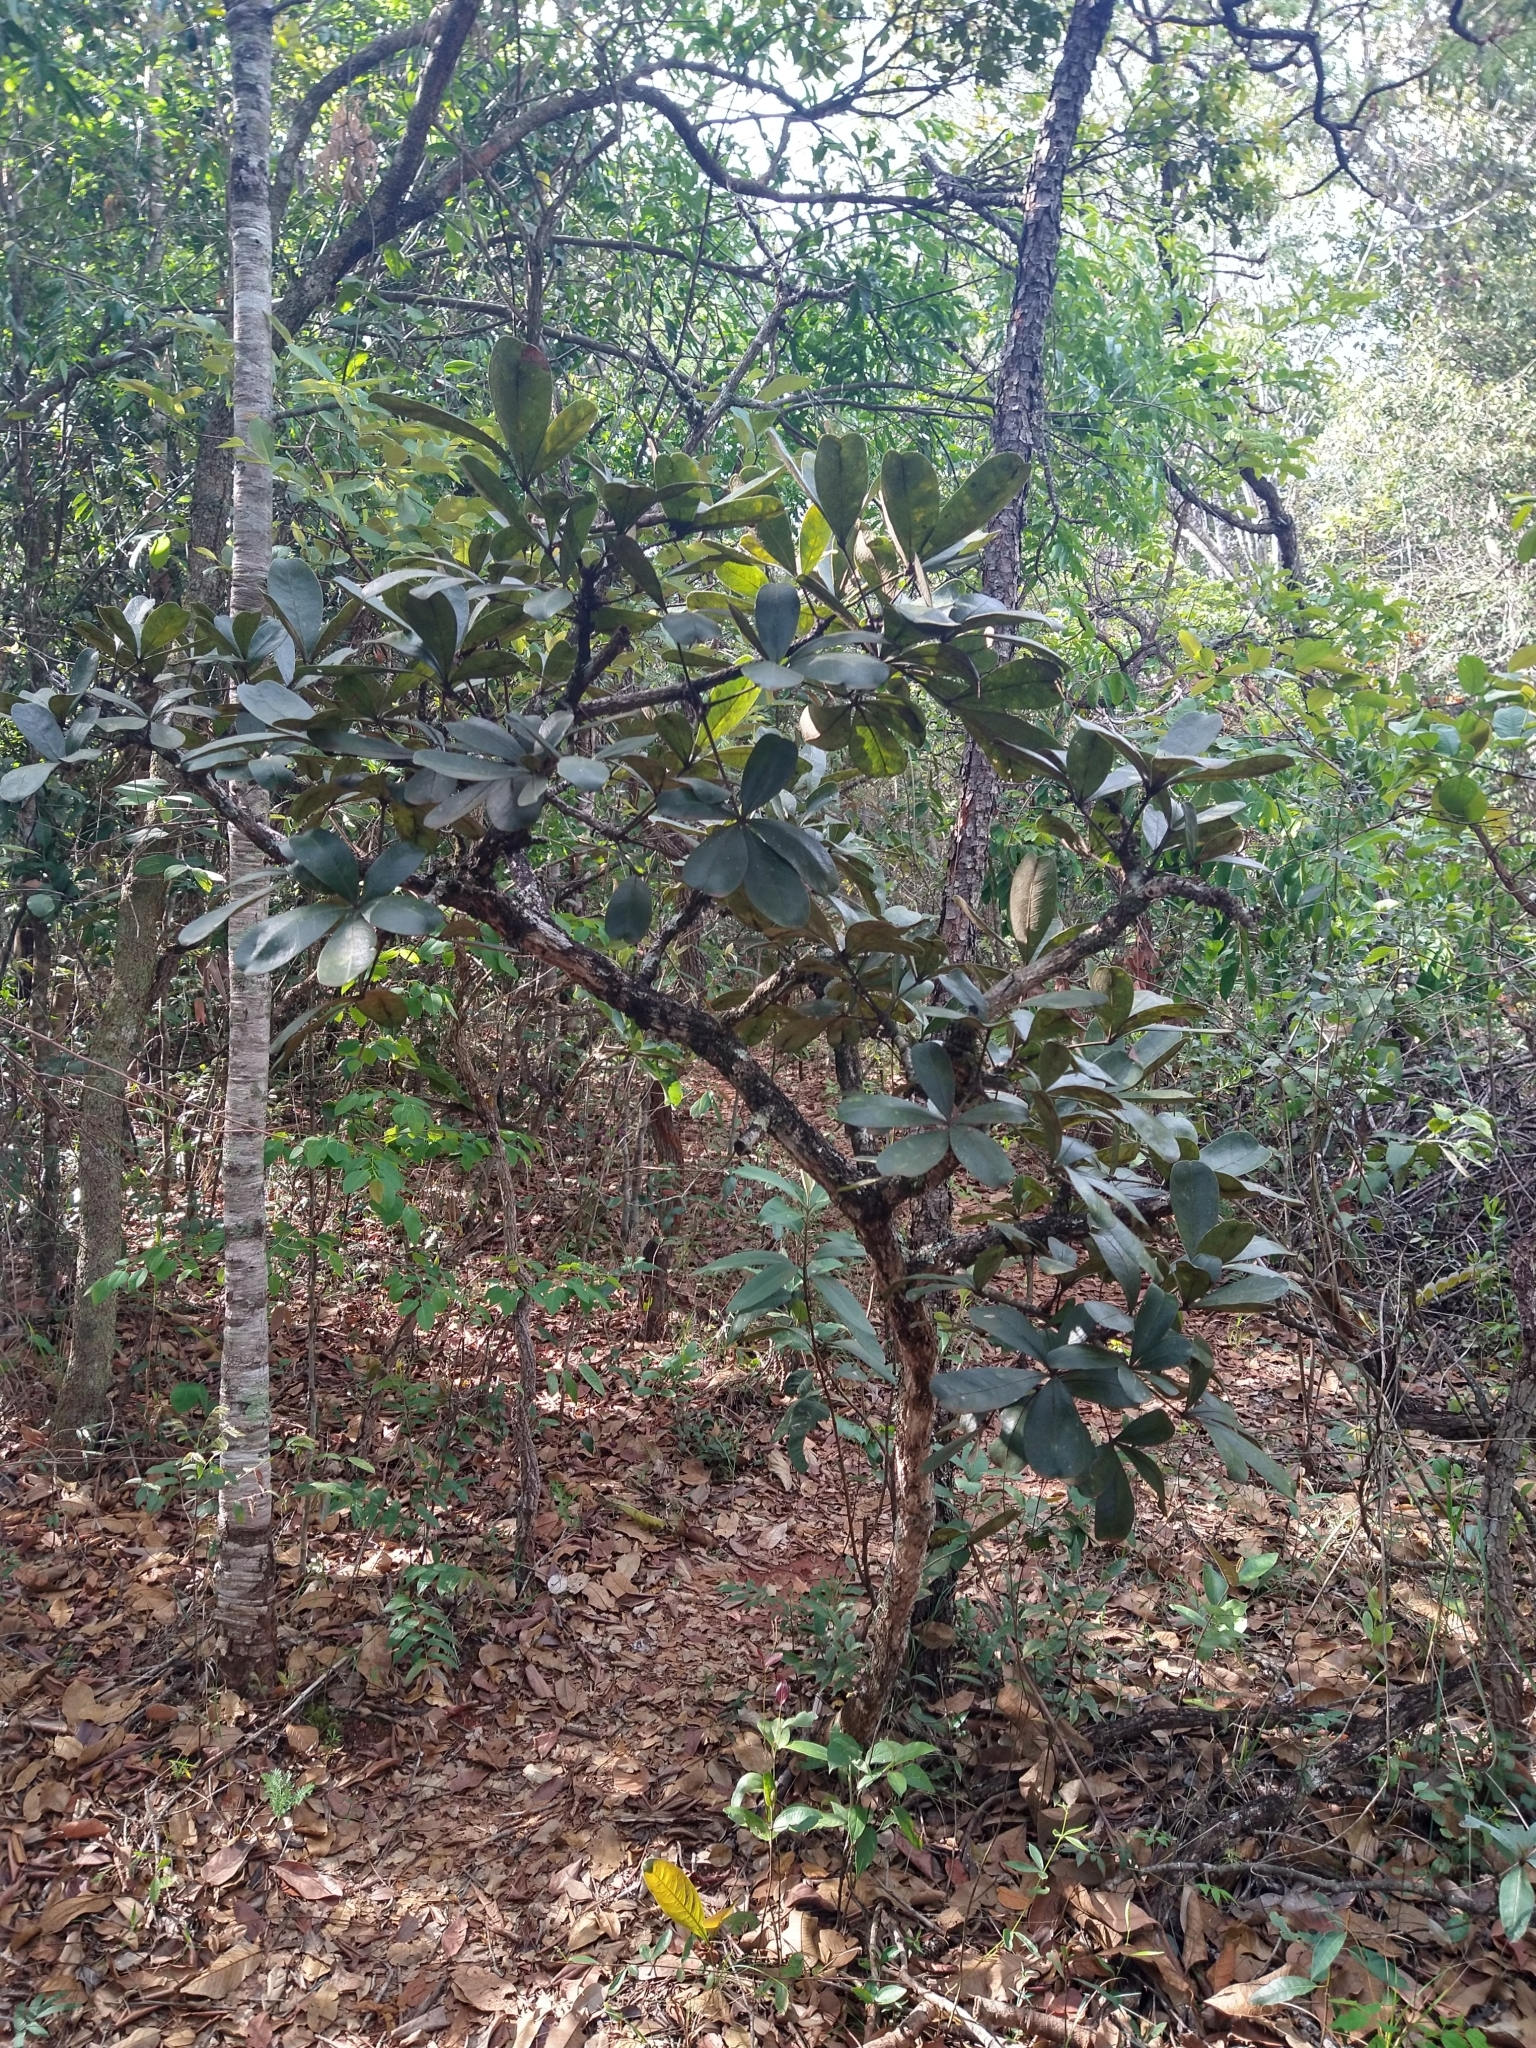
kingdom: Plantae
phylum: Tracheophyta
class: Magnoliopsida
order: Malvales
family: Malvaceae
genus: Eriotheca
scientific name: Eriotheca pubescens
